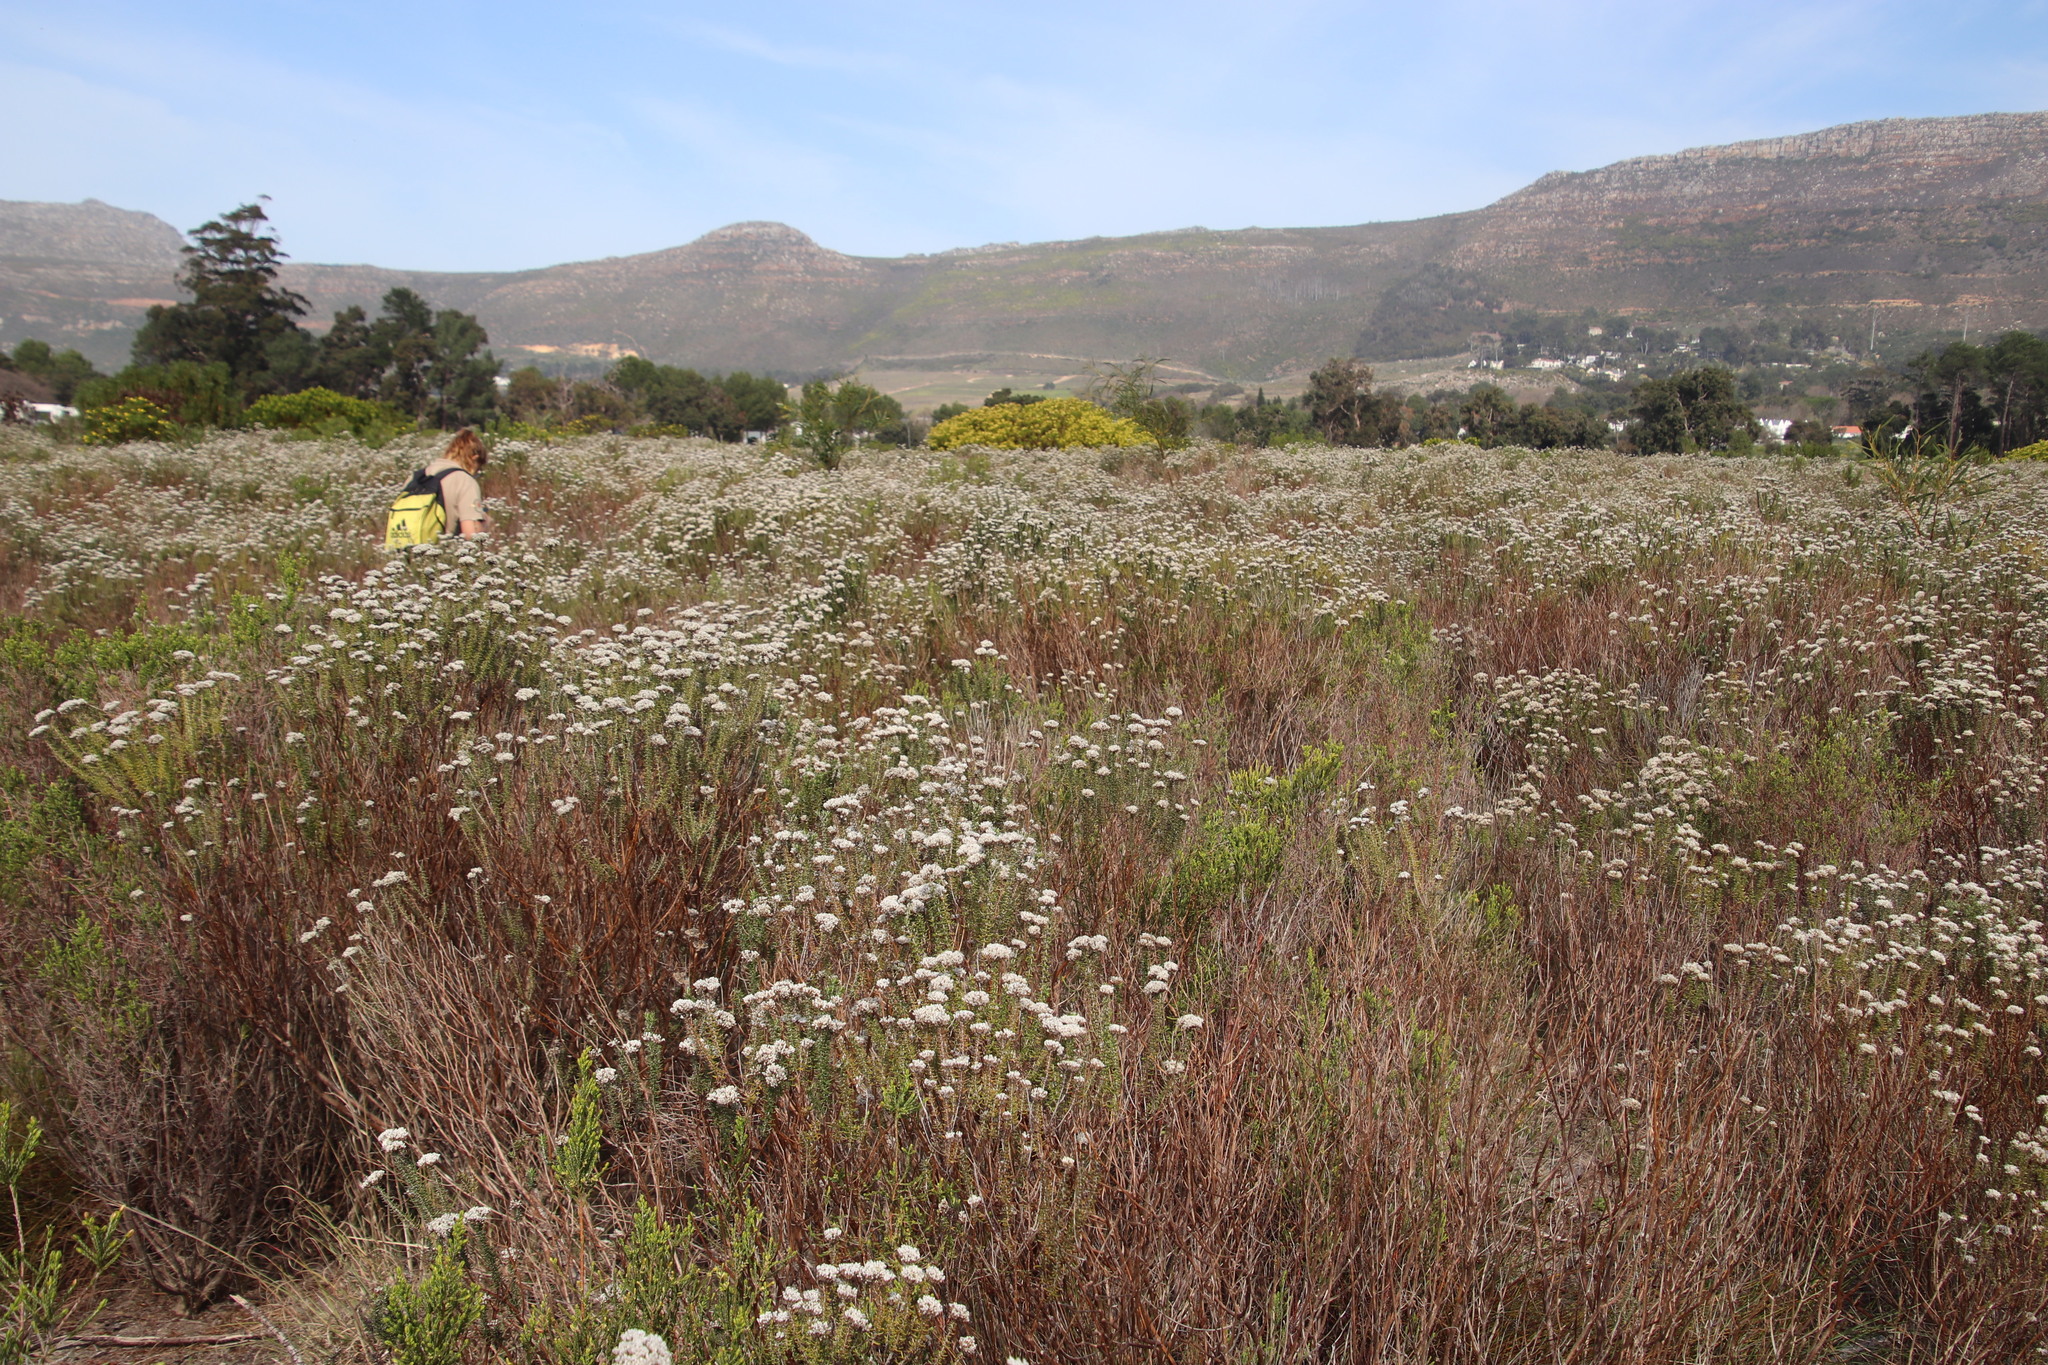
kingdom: Plantae
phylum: Tracheophyta
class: Liliopsida
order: Poales
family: Restionaceae
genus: Restio
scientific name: Restio capensis
